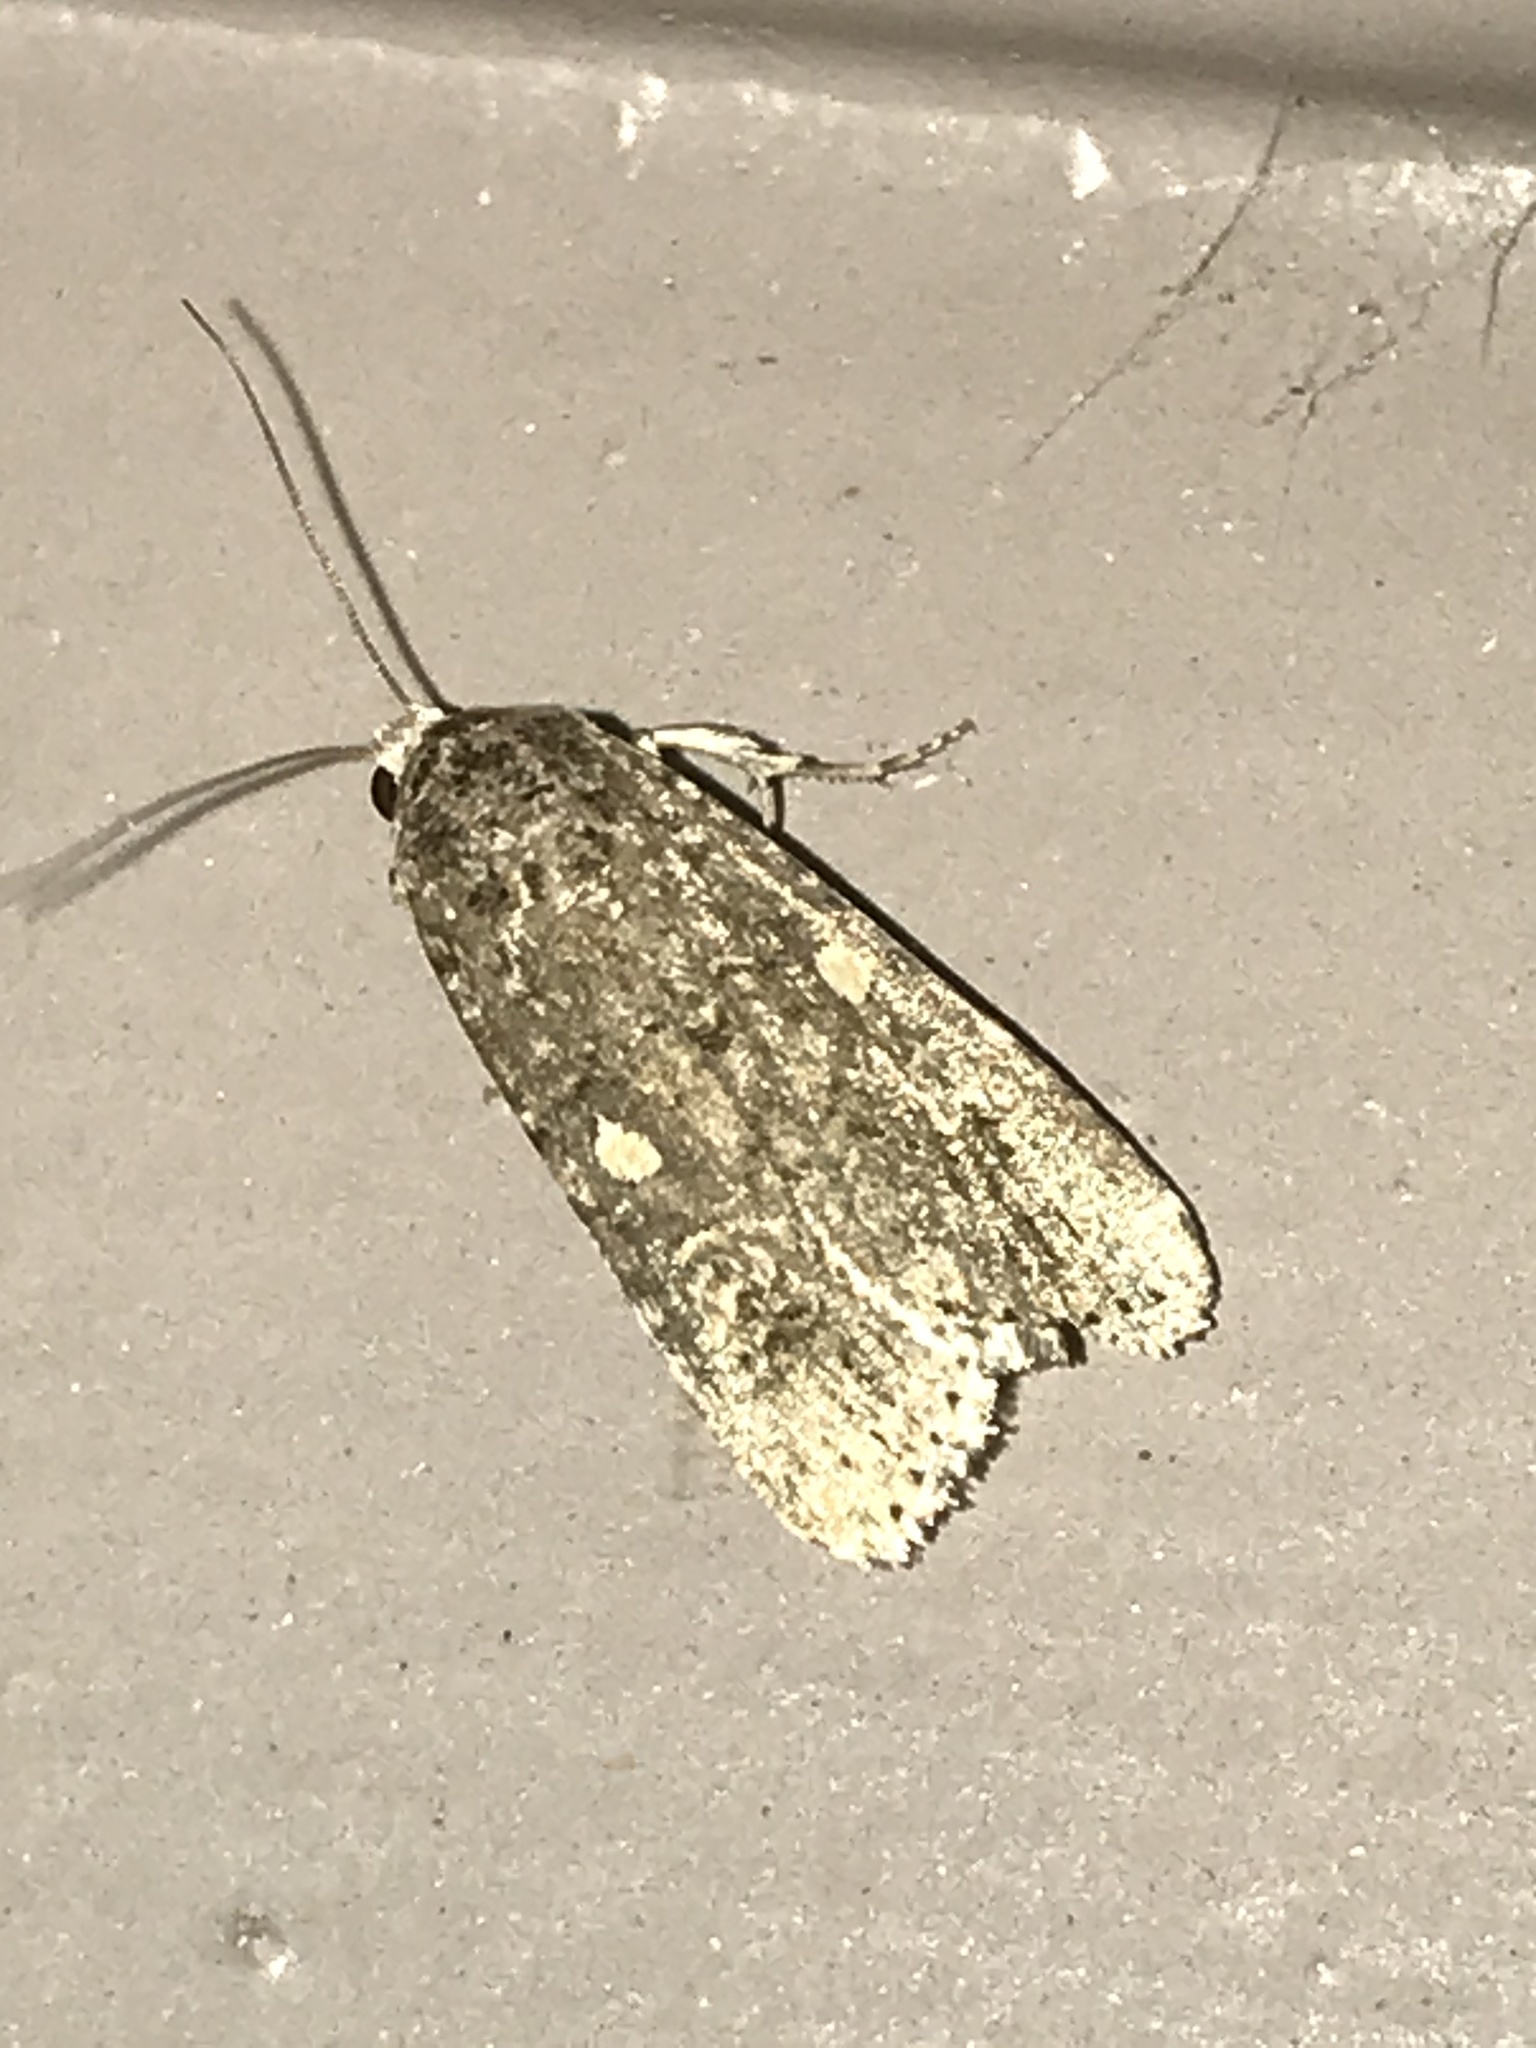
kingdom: Animalia
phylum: Arthropoda
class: Insecta
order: Lepidoptera
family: Noctuidae
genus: Spodoptera
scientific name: Spodoptera exigua
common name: Beet armyworm
